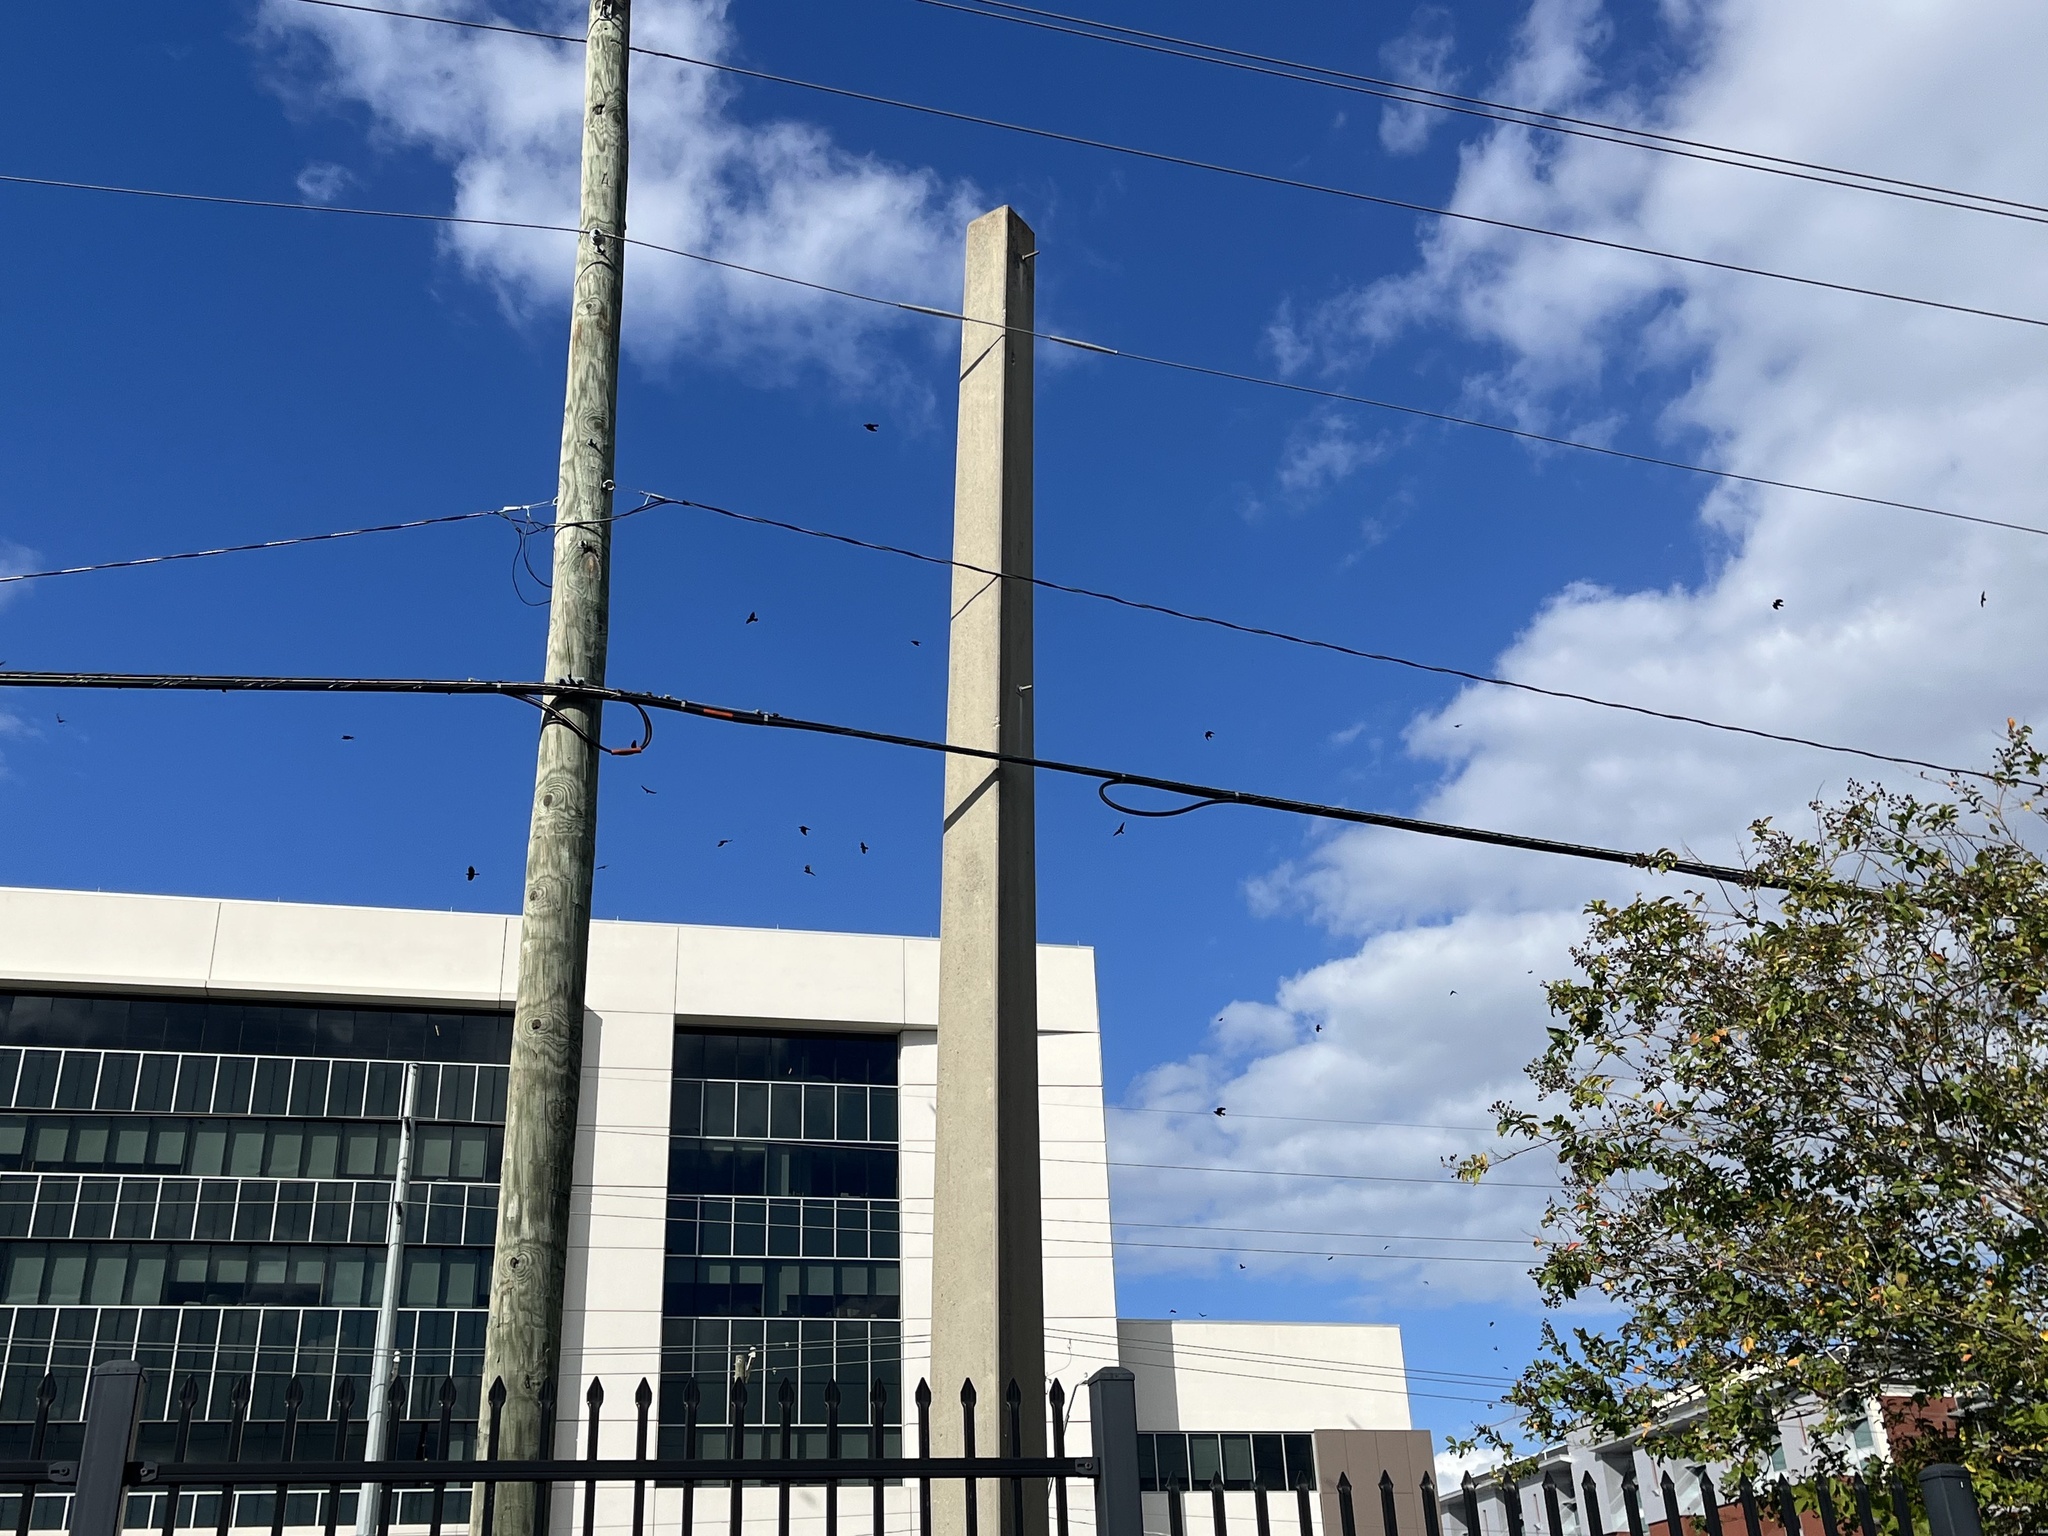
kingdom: Animalia
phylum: Chordata
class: Aves
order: Passeriformes
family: Corvidae
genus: Corvus
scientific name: Corvus ossifragus
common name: Fish crow
